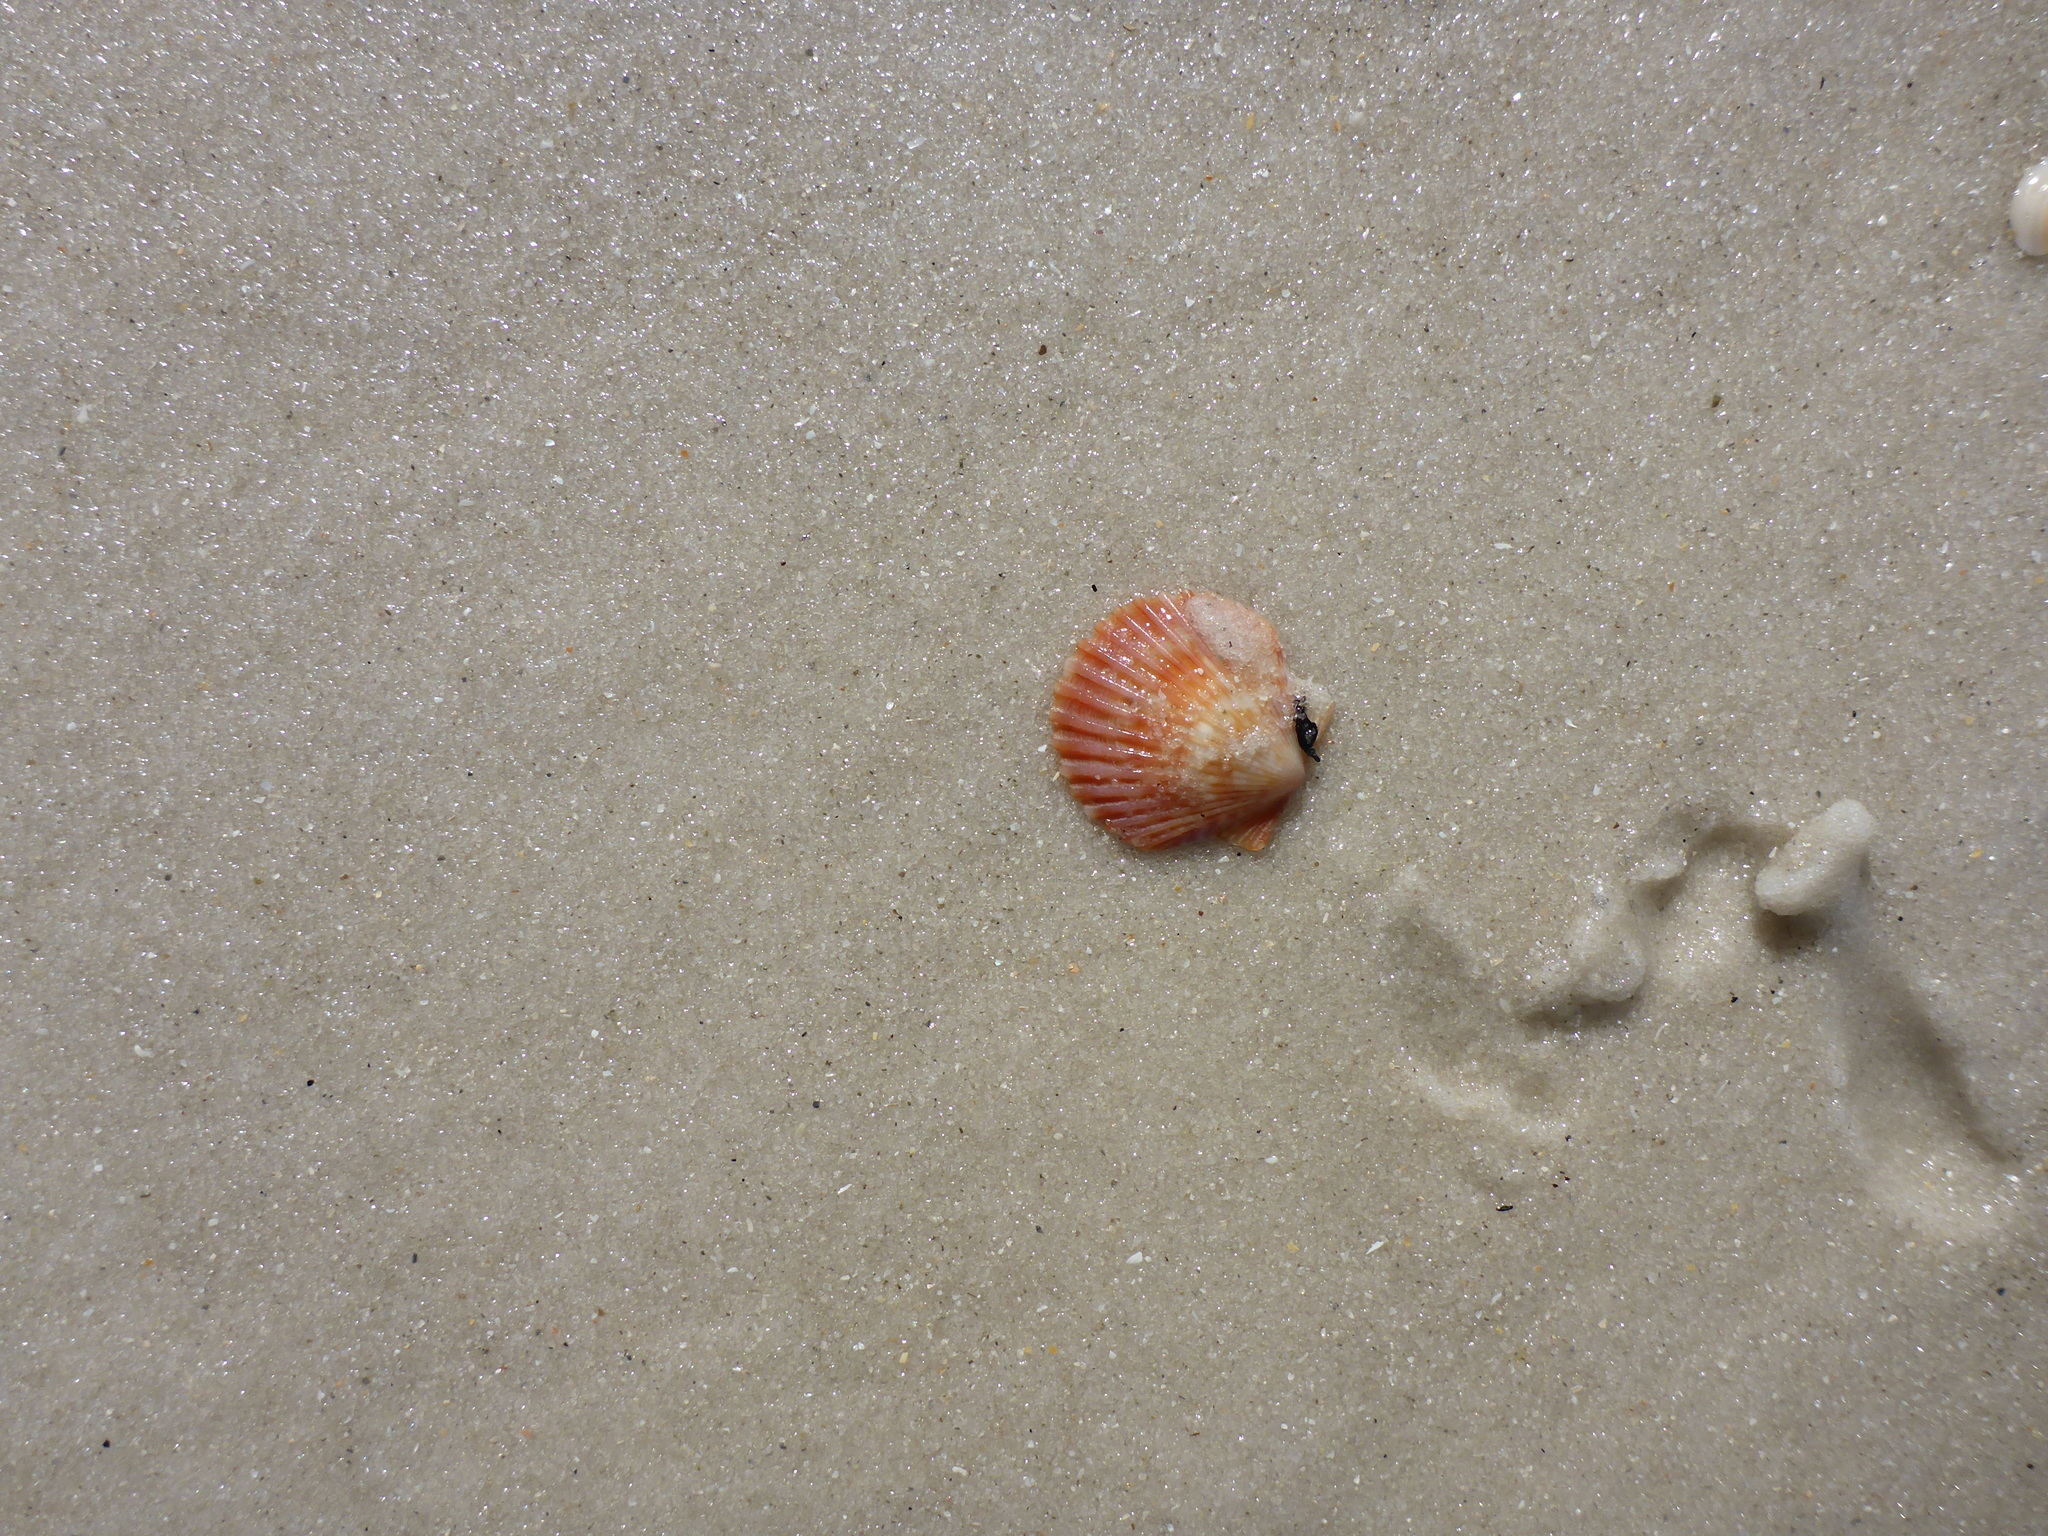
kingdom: Animalia
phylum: Mollusca
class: Bivalvia
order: Pectinida
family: Pectinidae
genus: Argopecten
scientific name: Argopecten gibbus
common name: Atlantic calico scallop
